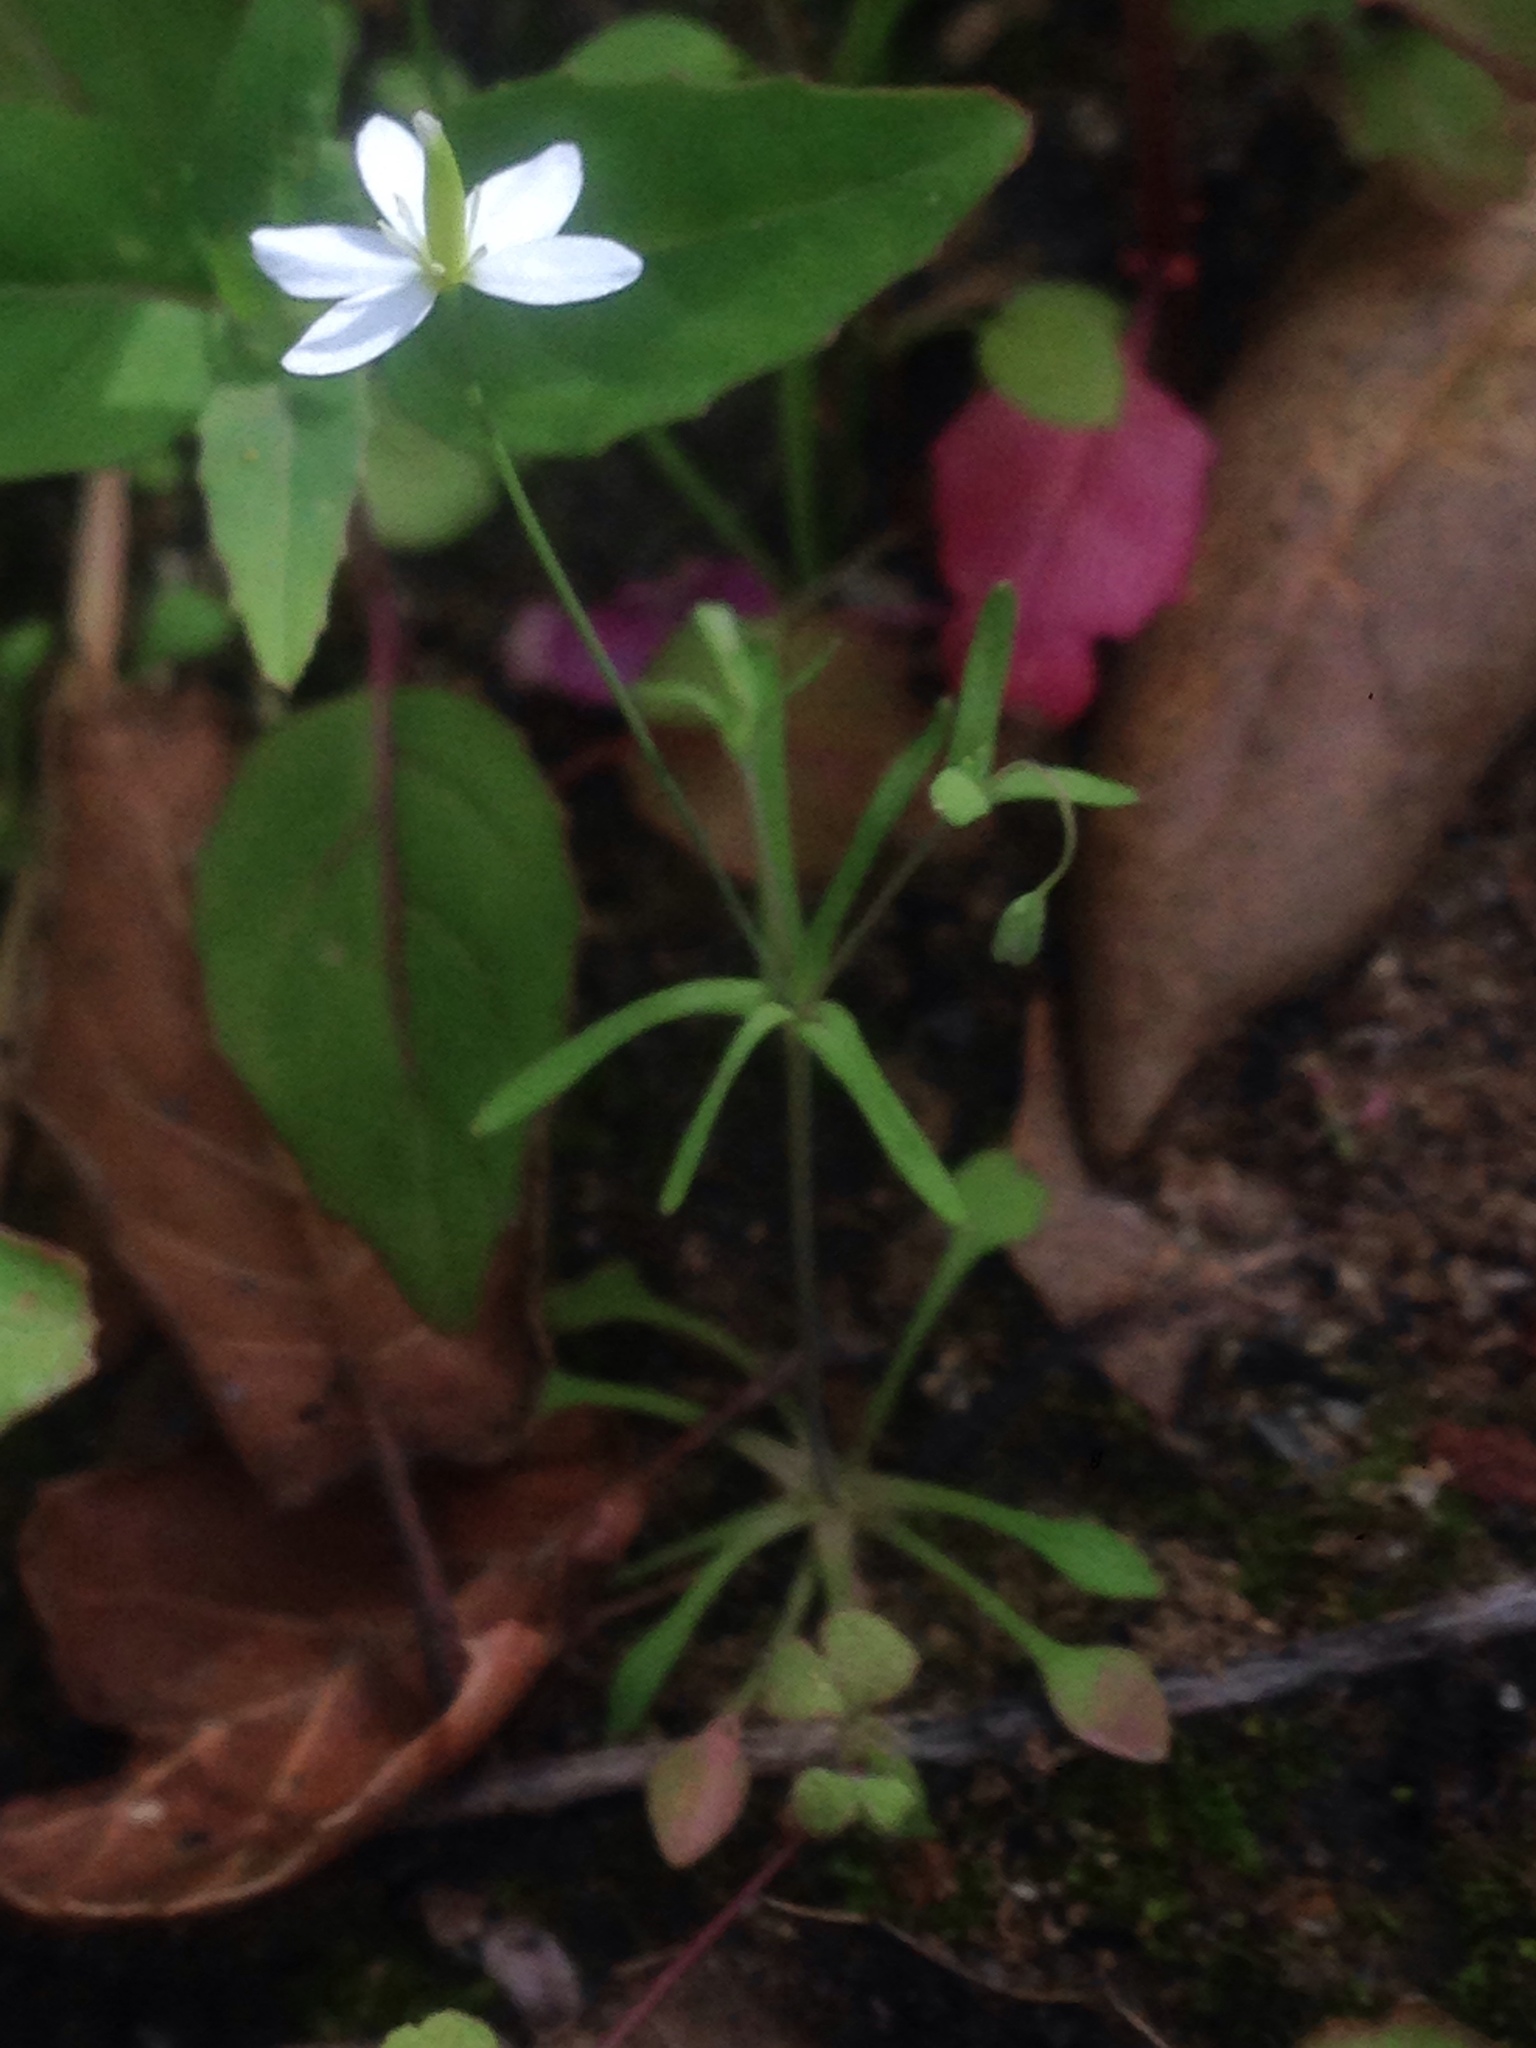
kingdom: Plantae
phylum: Tracheophyta
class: Magnoliopsida
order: Ranunculales
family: Papaveraceae
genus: Meconella
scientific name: Meconella denticulata
